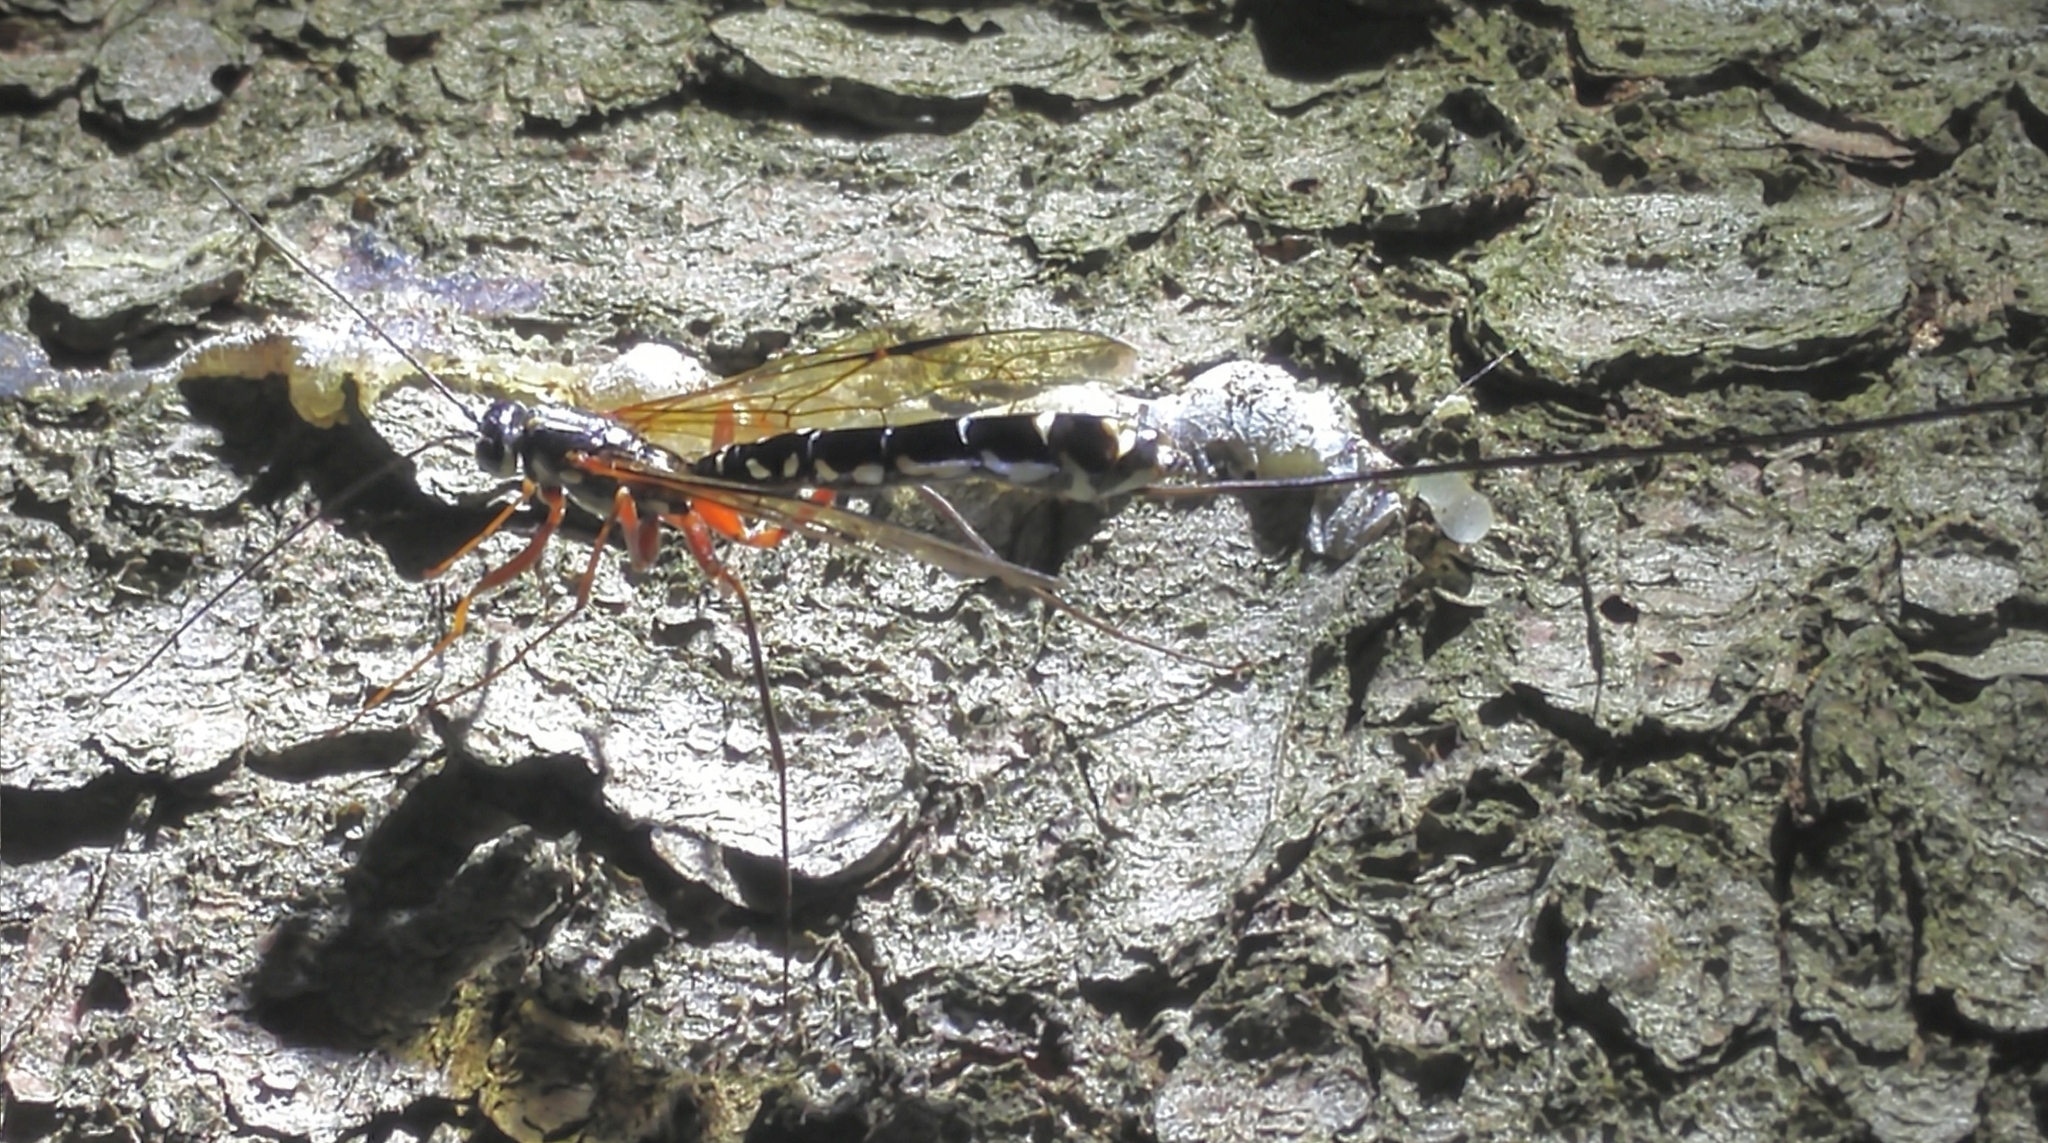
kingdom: Animalia
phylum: Arthropoda
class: Insecta
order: Hymenoptera
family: Ichneumonidae
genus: Megarhyssa
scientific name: Megarhyssa rixator
